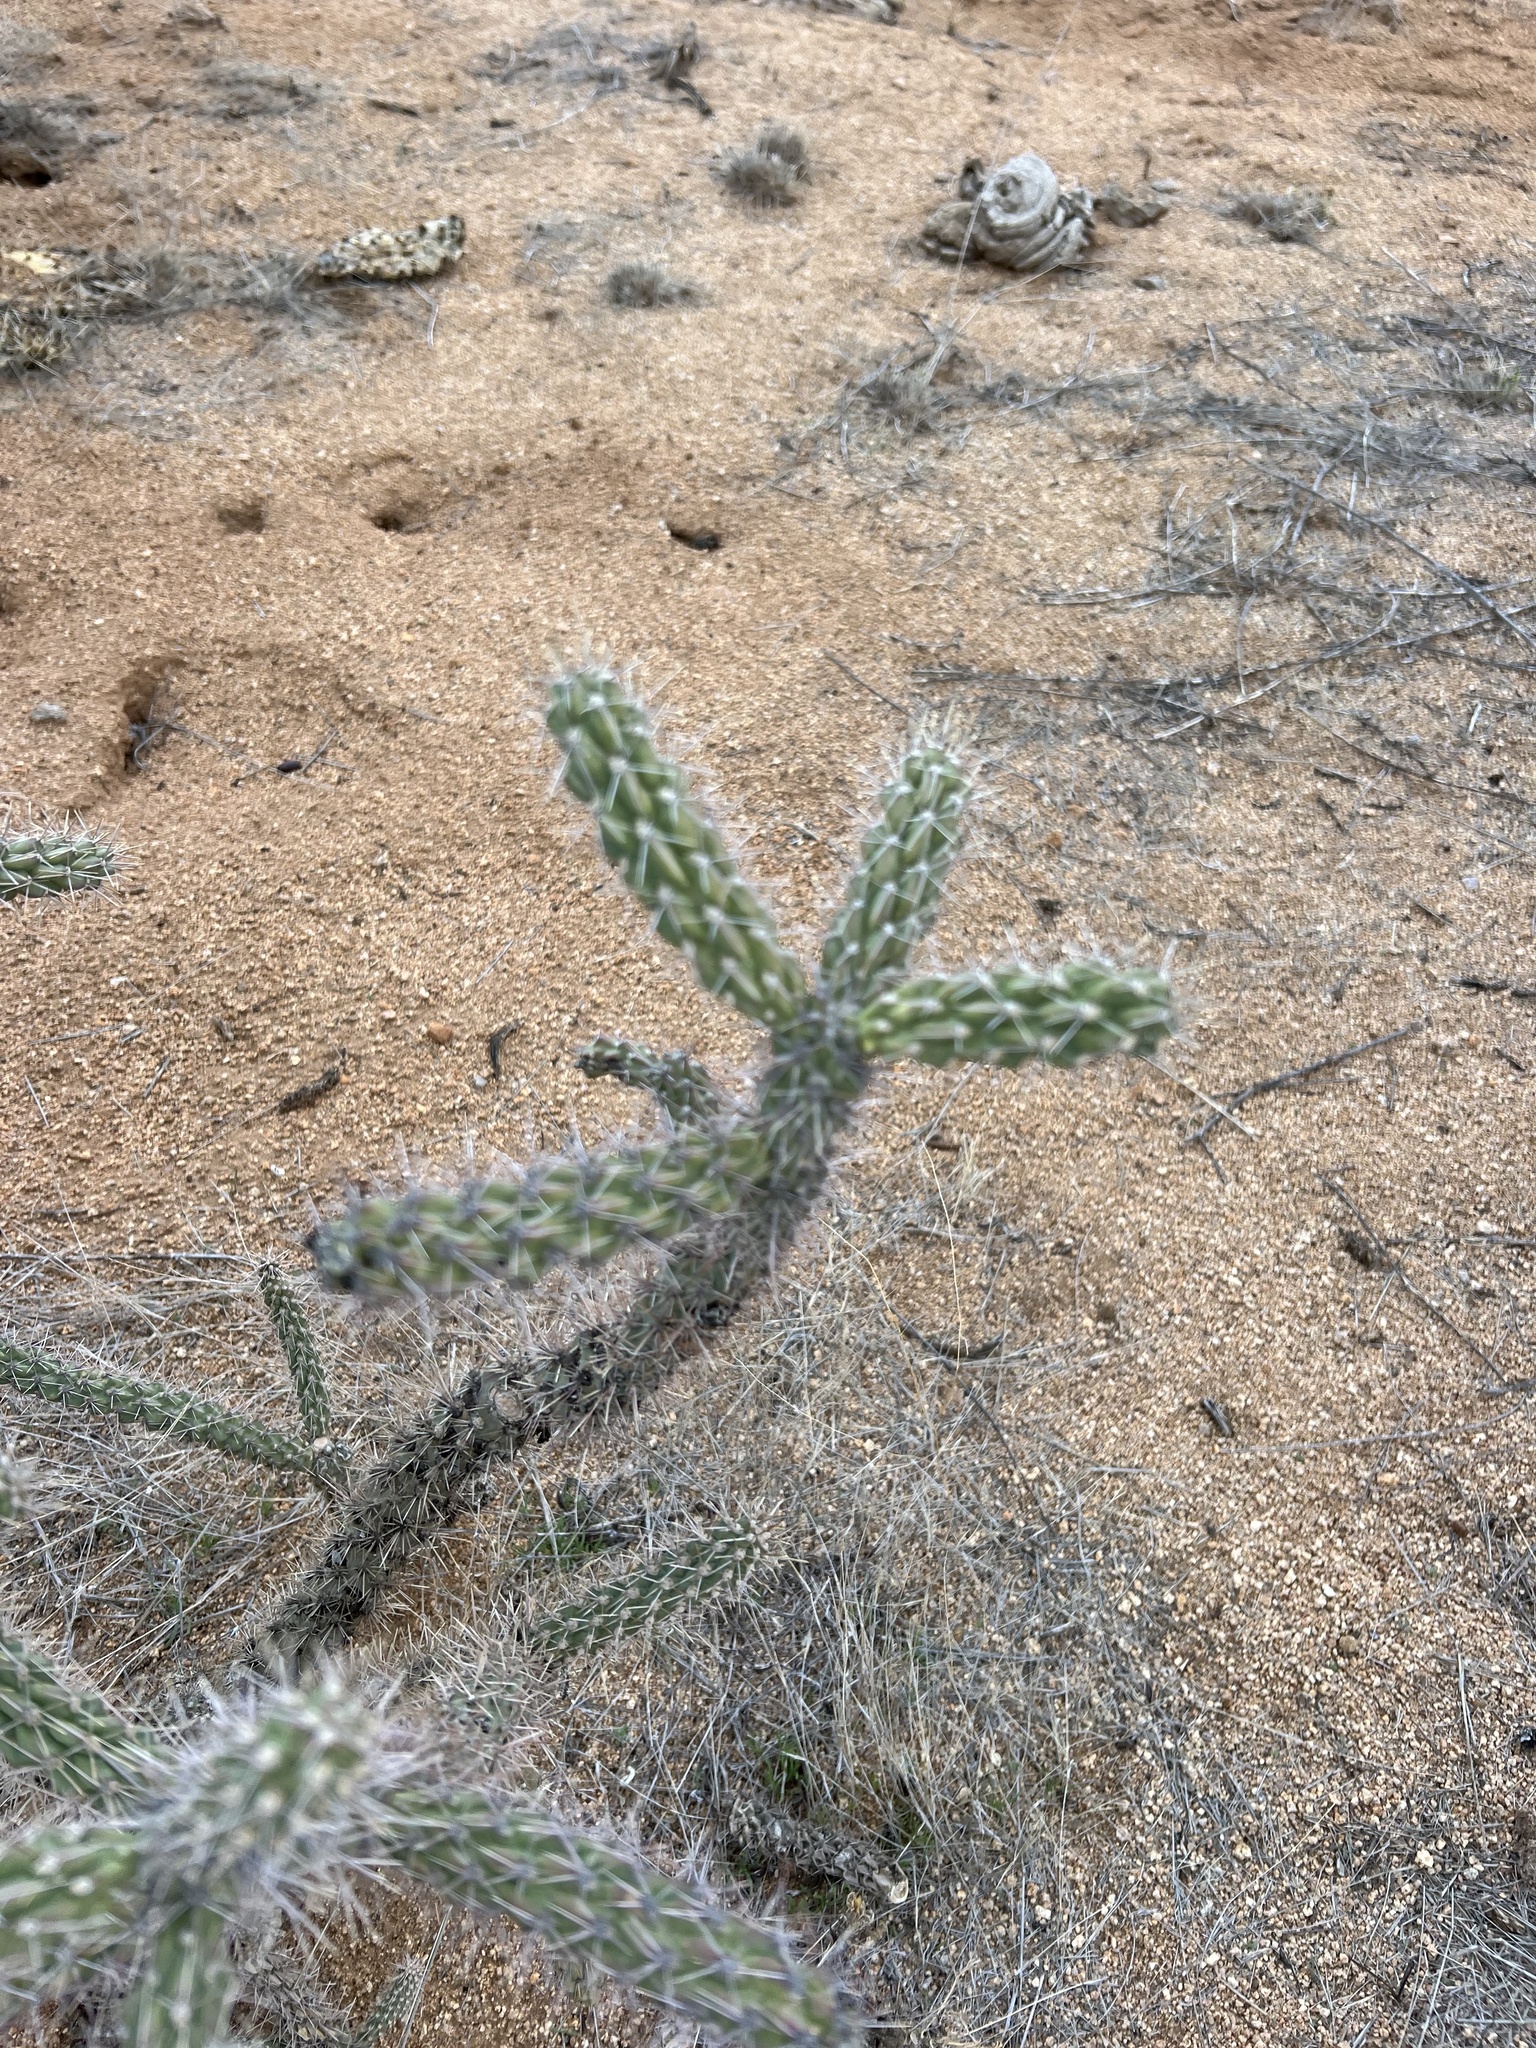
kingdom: Plantae
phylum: Tracheophyta
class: Magnoliopsida
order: Caryophyllales
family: Cactaceae
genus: Cylindropuntia
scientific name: Cylindropuntia imbricata
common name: Candelabrum cactus
